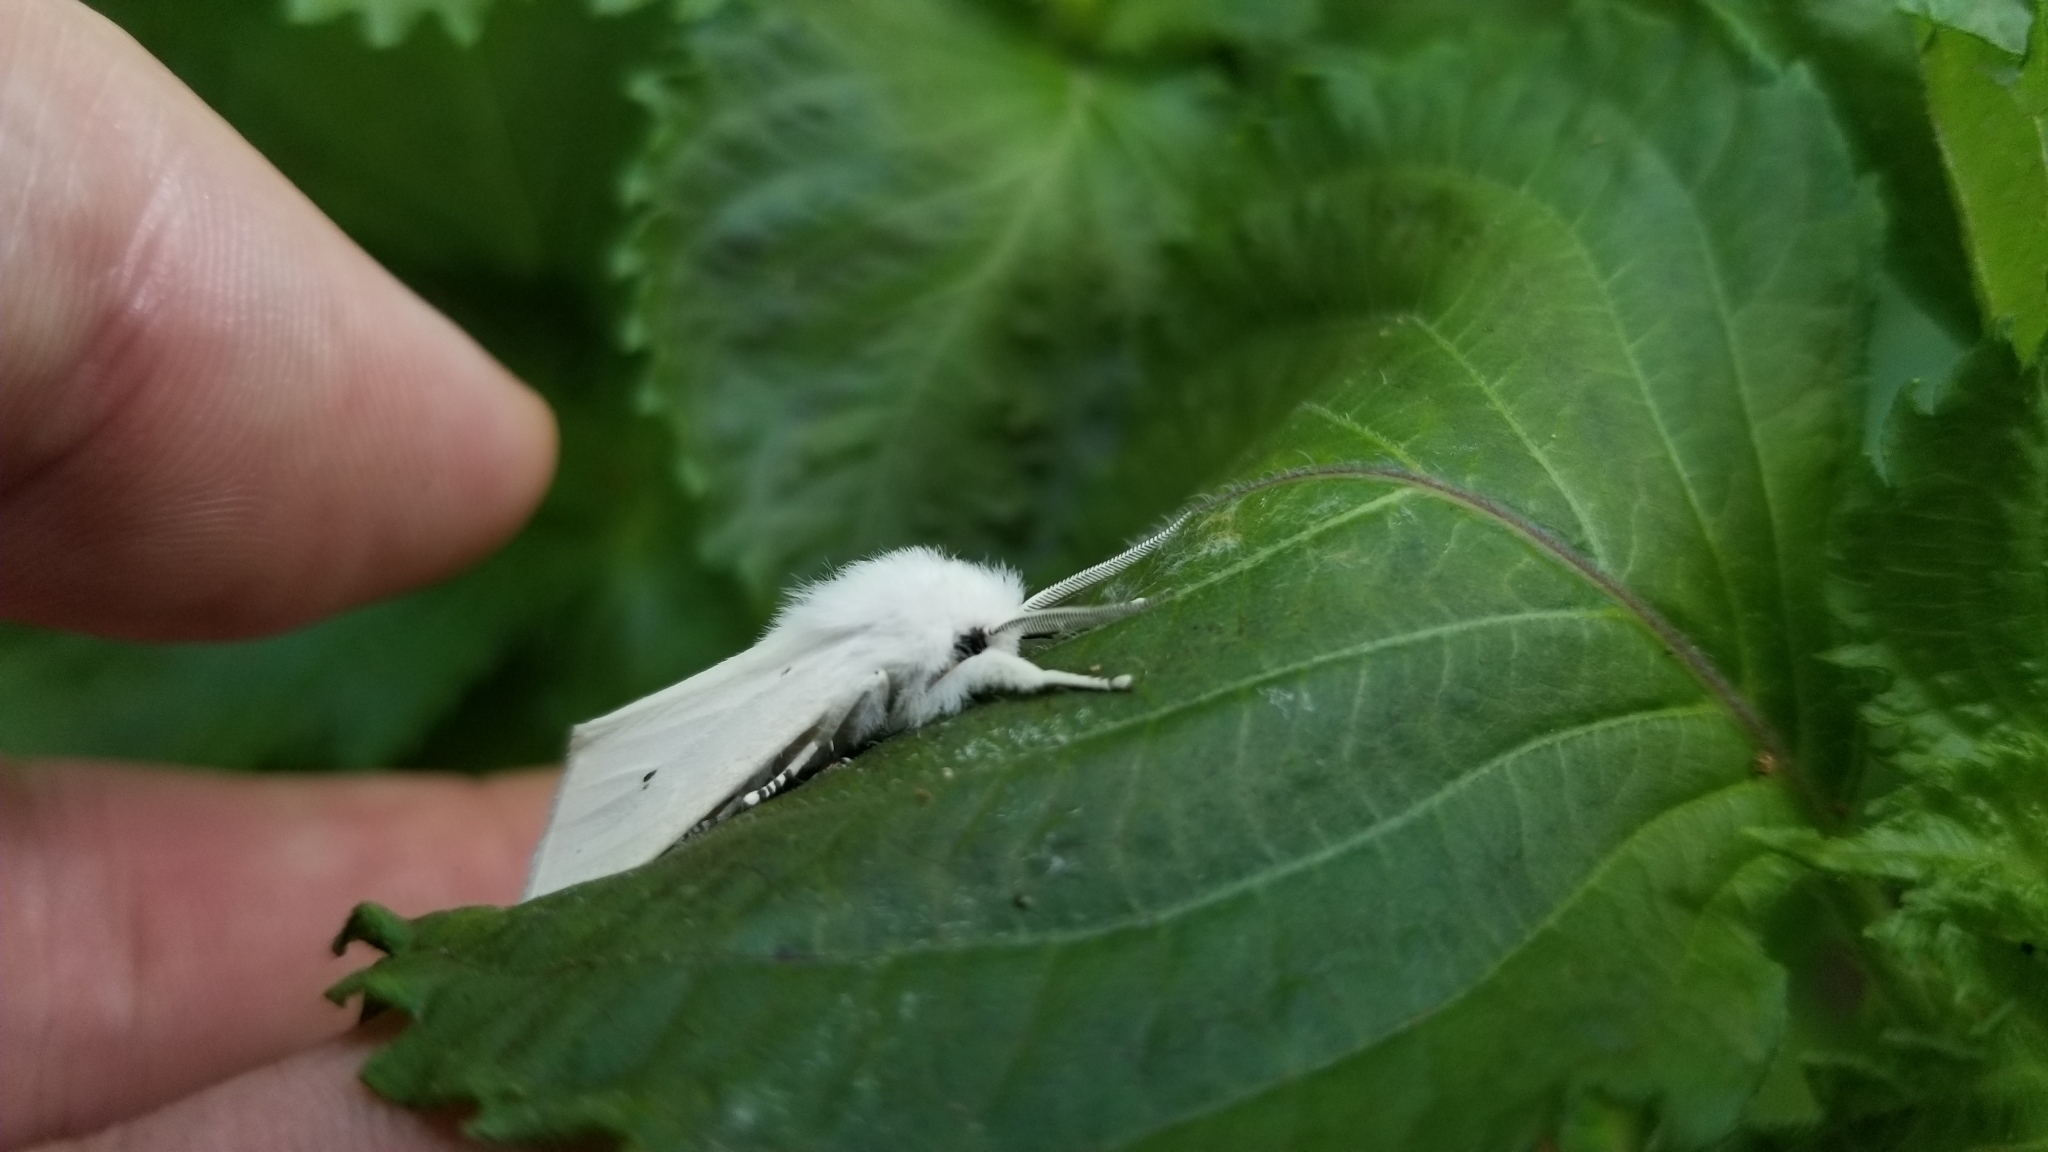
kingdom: Animalia
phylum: Arthropoda
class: Insecta
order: Lepidoptera
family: Erebidae
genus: Spilosoma
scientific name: Spilosoma virginica
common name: Virginia tiger moth
